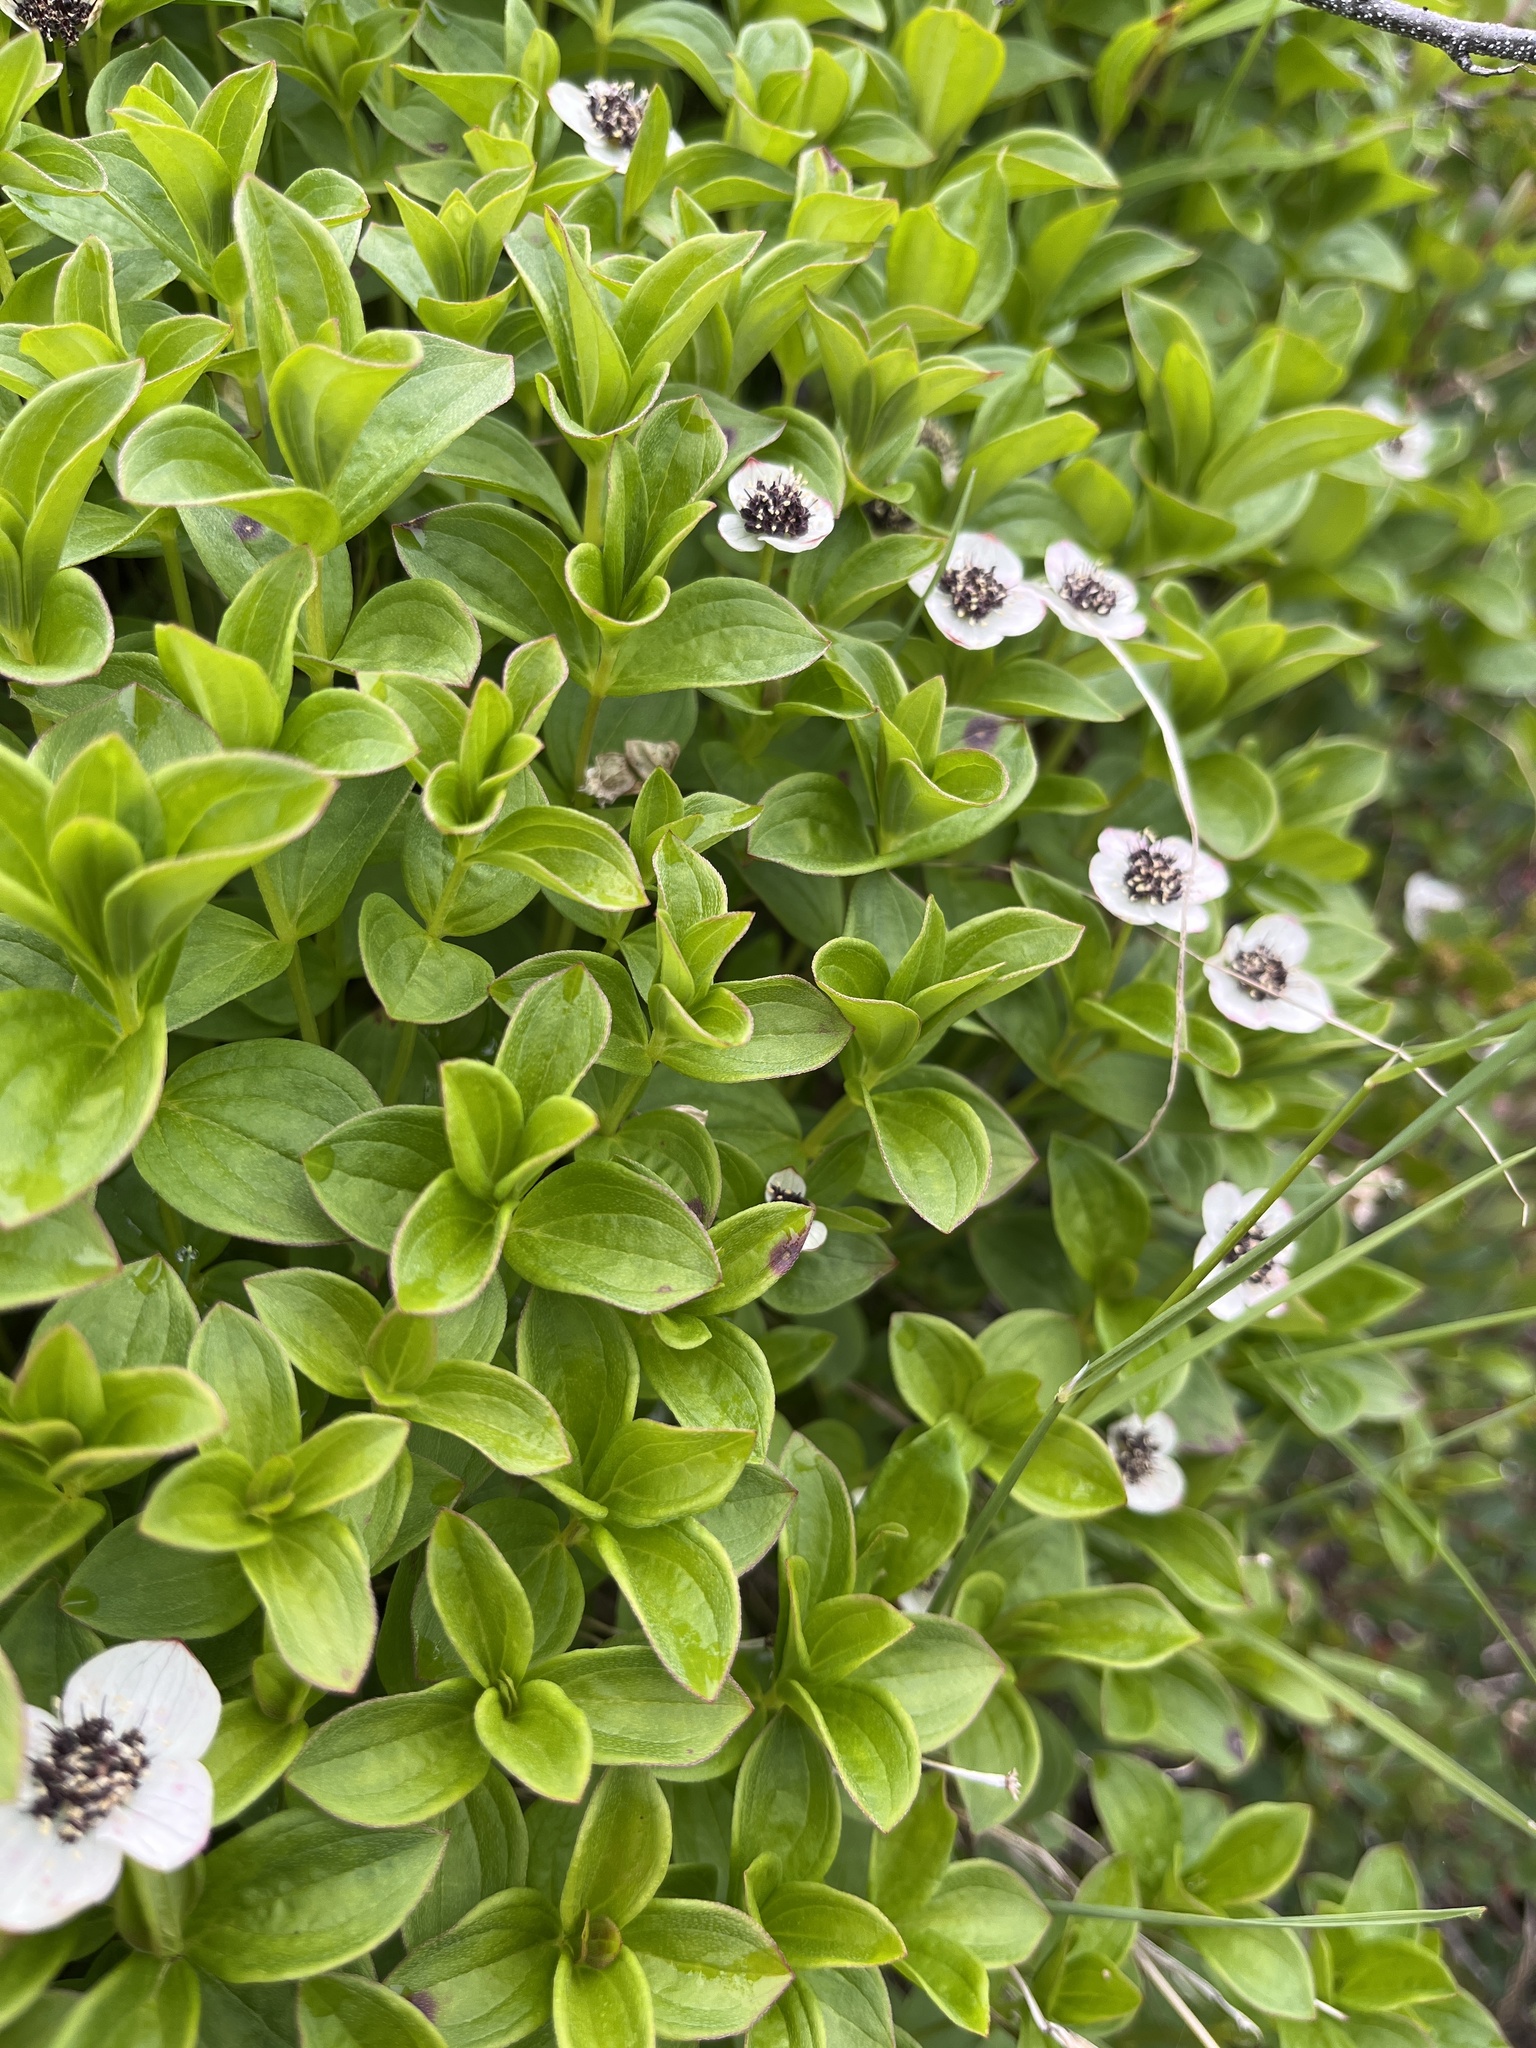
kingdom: Plantae
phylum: Tracheophyta
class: Magnoliopsida
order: Cornales
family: Cornaceae
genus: Cornus
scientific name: Cornus suecica
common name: Dwarf cornel
